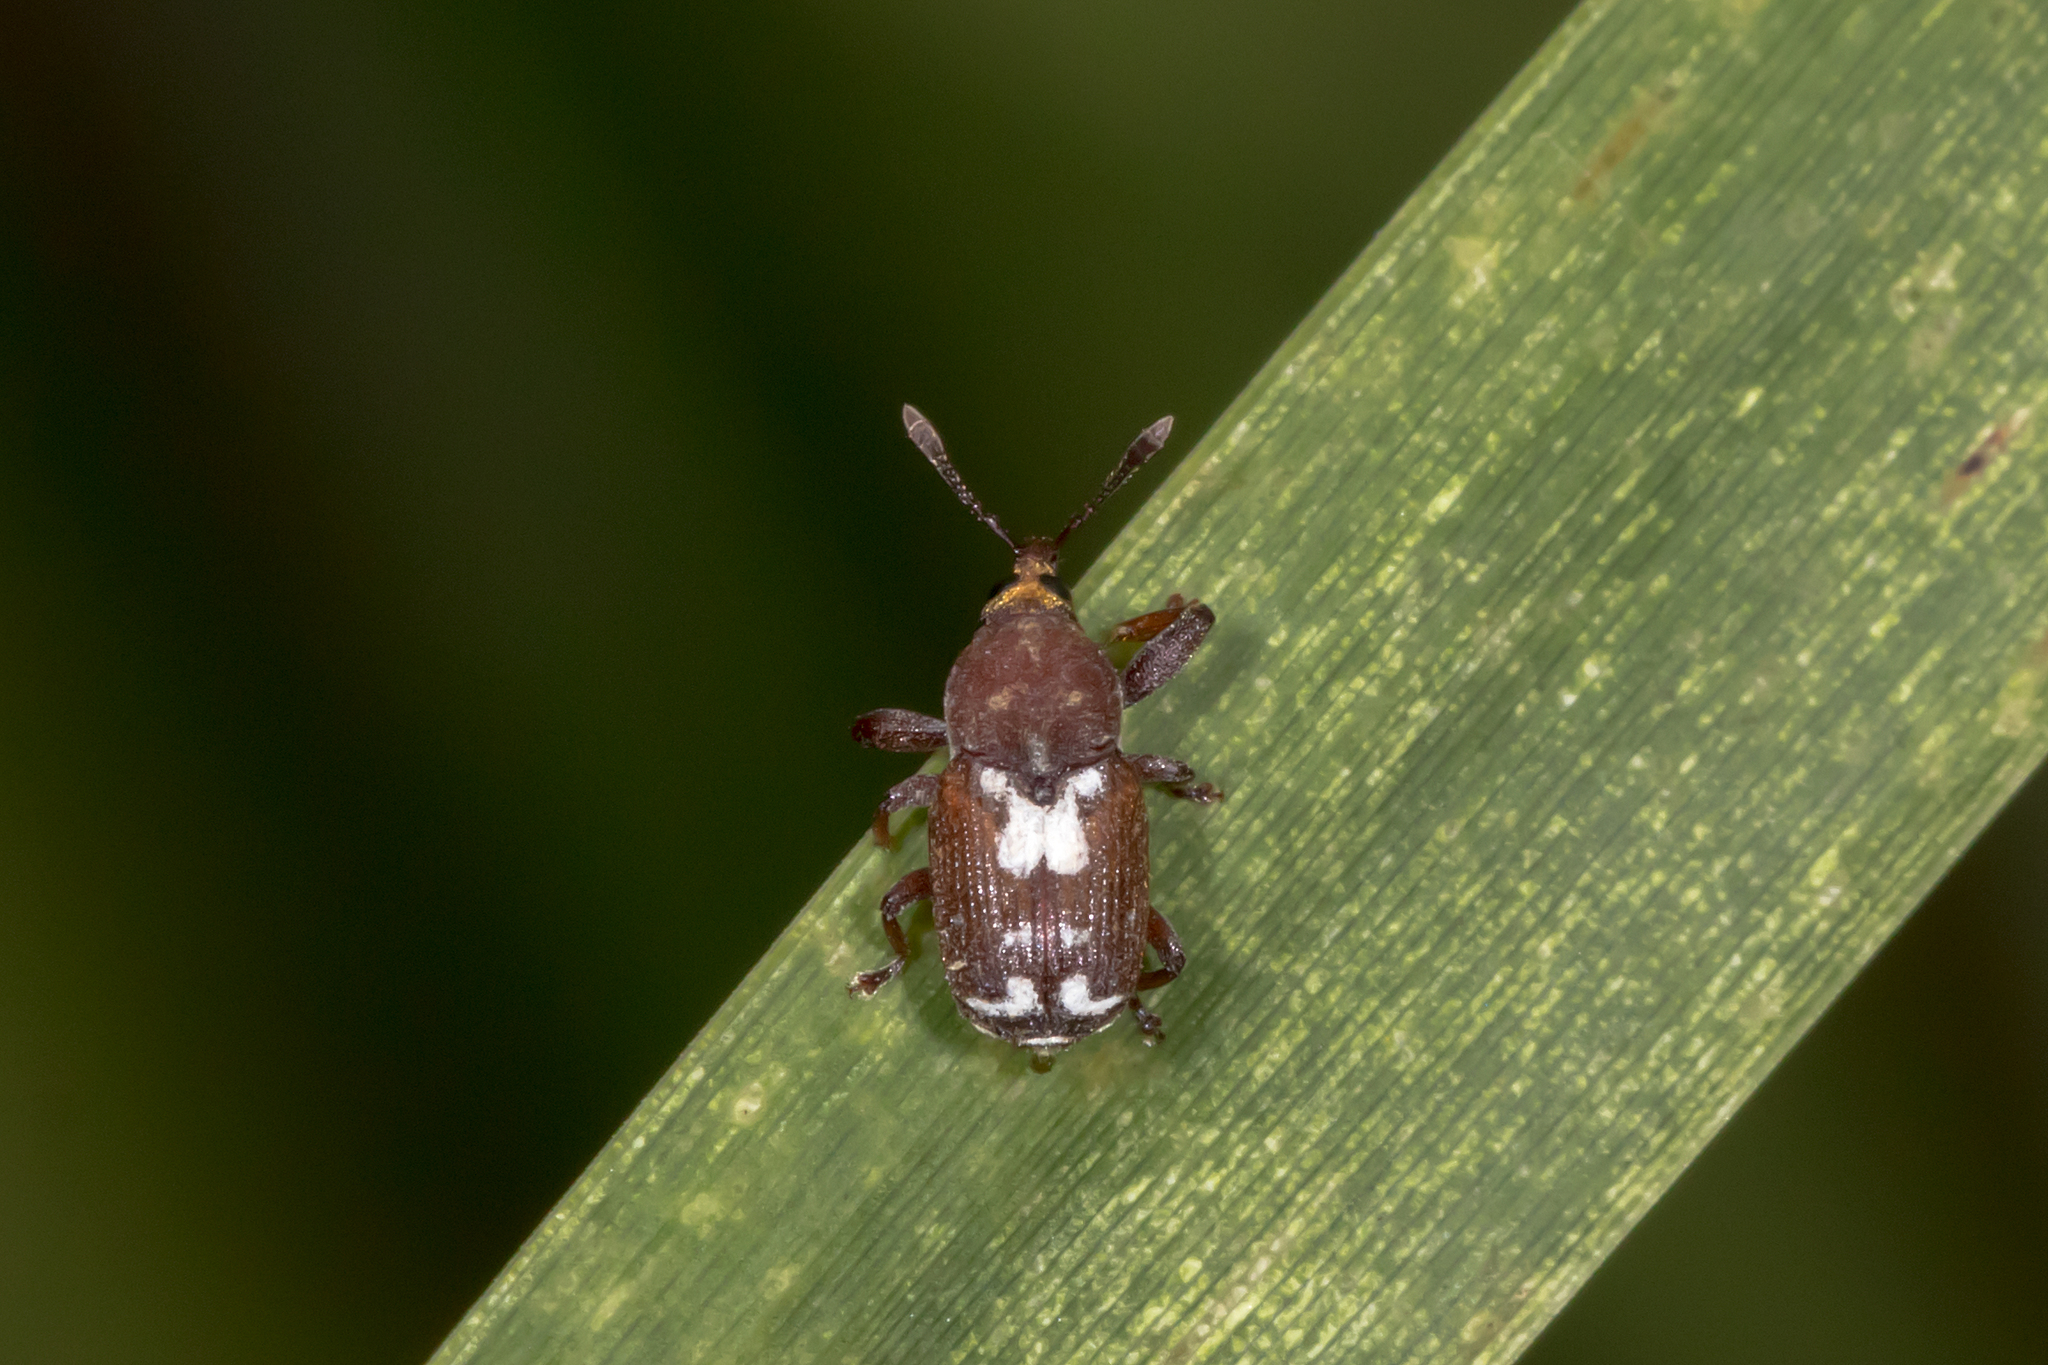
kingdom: Animalia
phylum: Arthropoda
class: Insecta
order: Coleoptera
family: Curculionidae
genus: Neolaemosaccus
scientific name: Neolaemosaccus notatus
